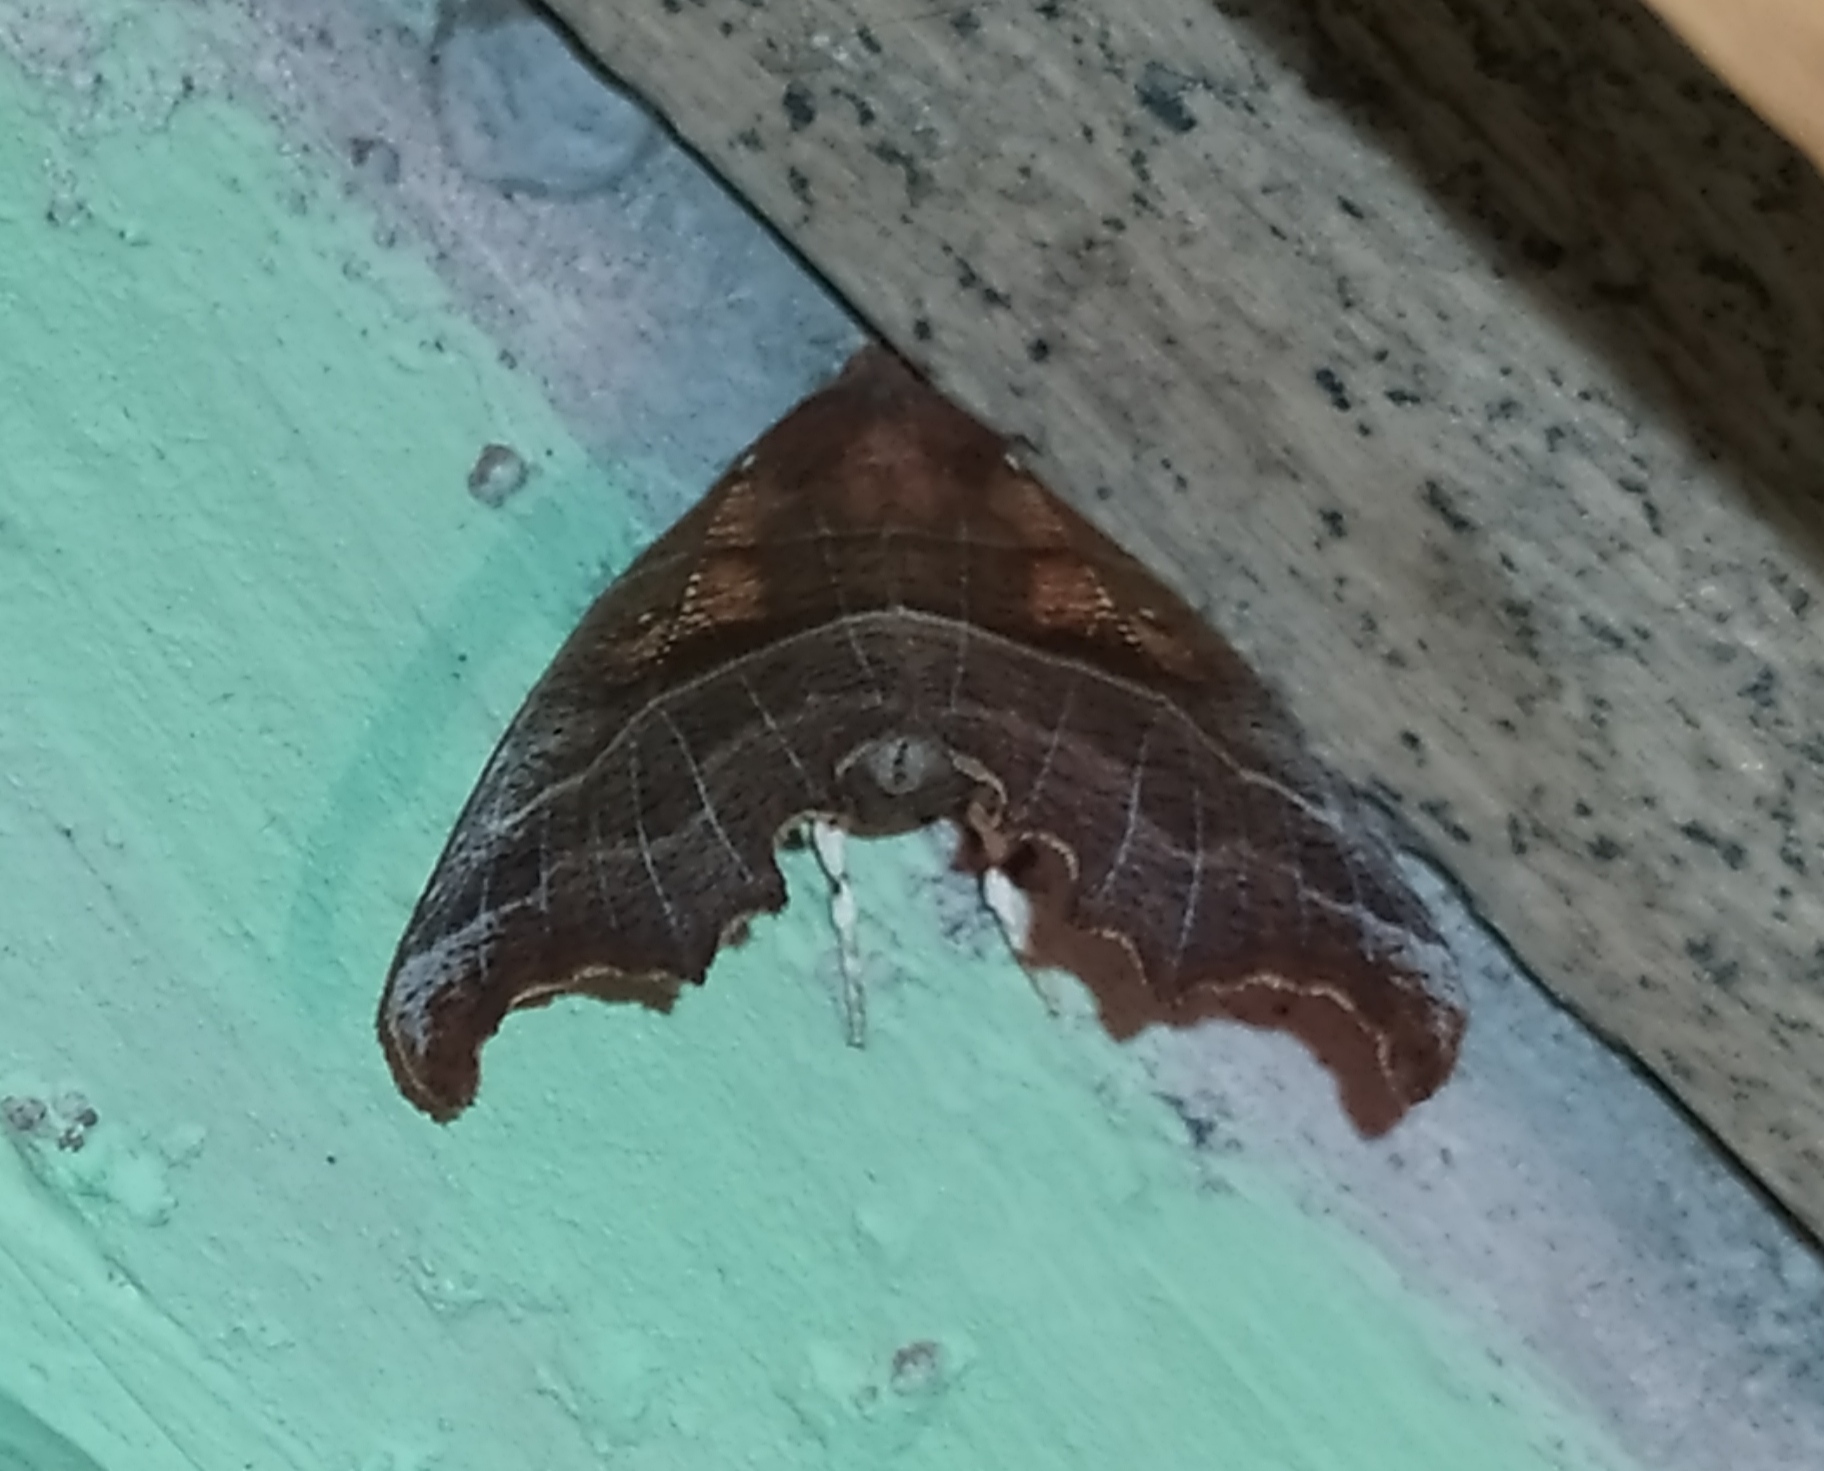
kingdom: Animalia
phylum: Arthropoda
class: Insecta
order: Lepidoptera
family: Erebidae
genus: Scoliopteryx
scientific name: Scoliopteryx libatrix
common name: Herald
